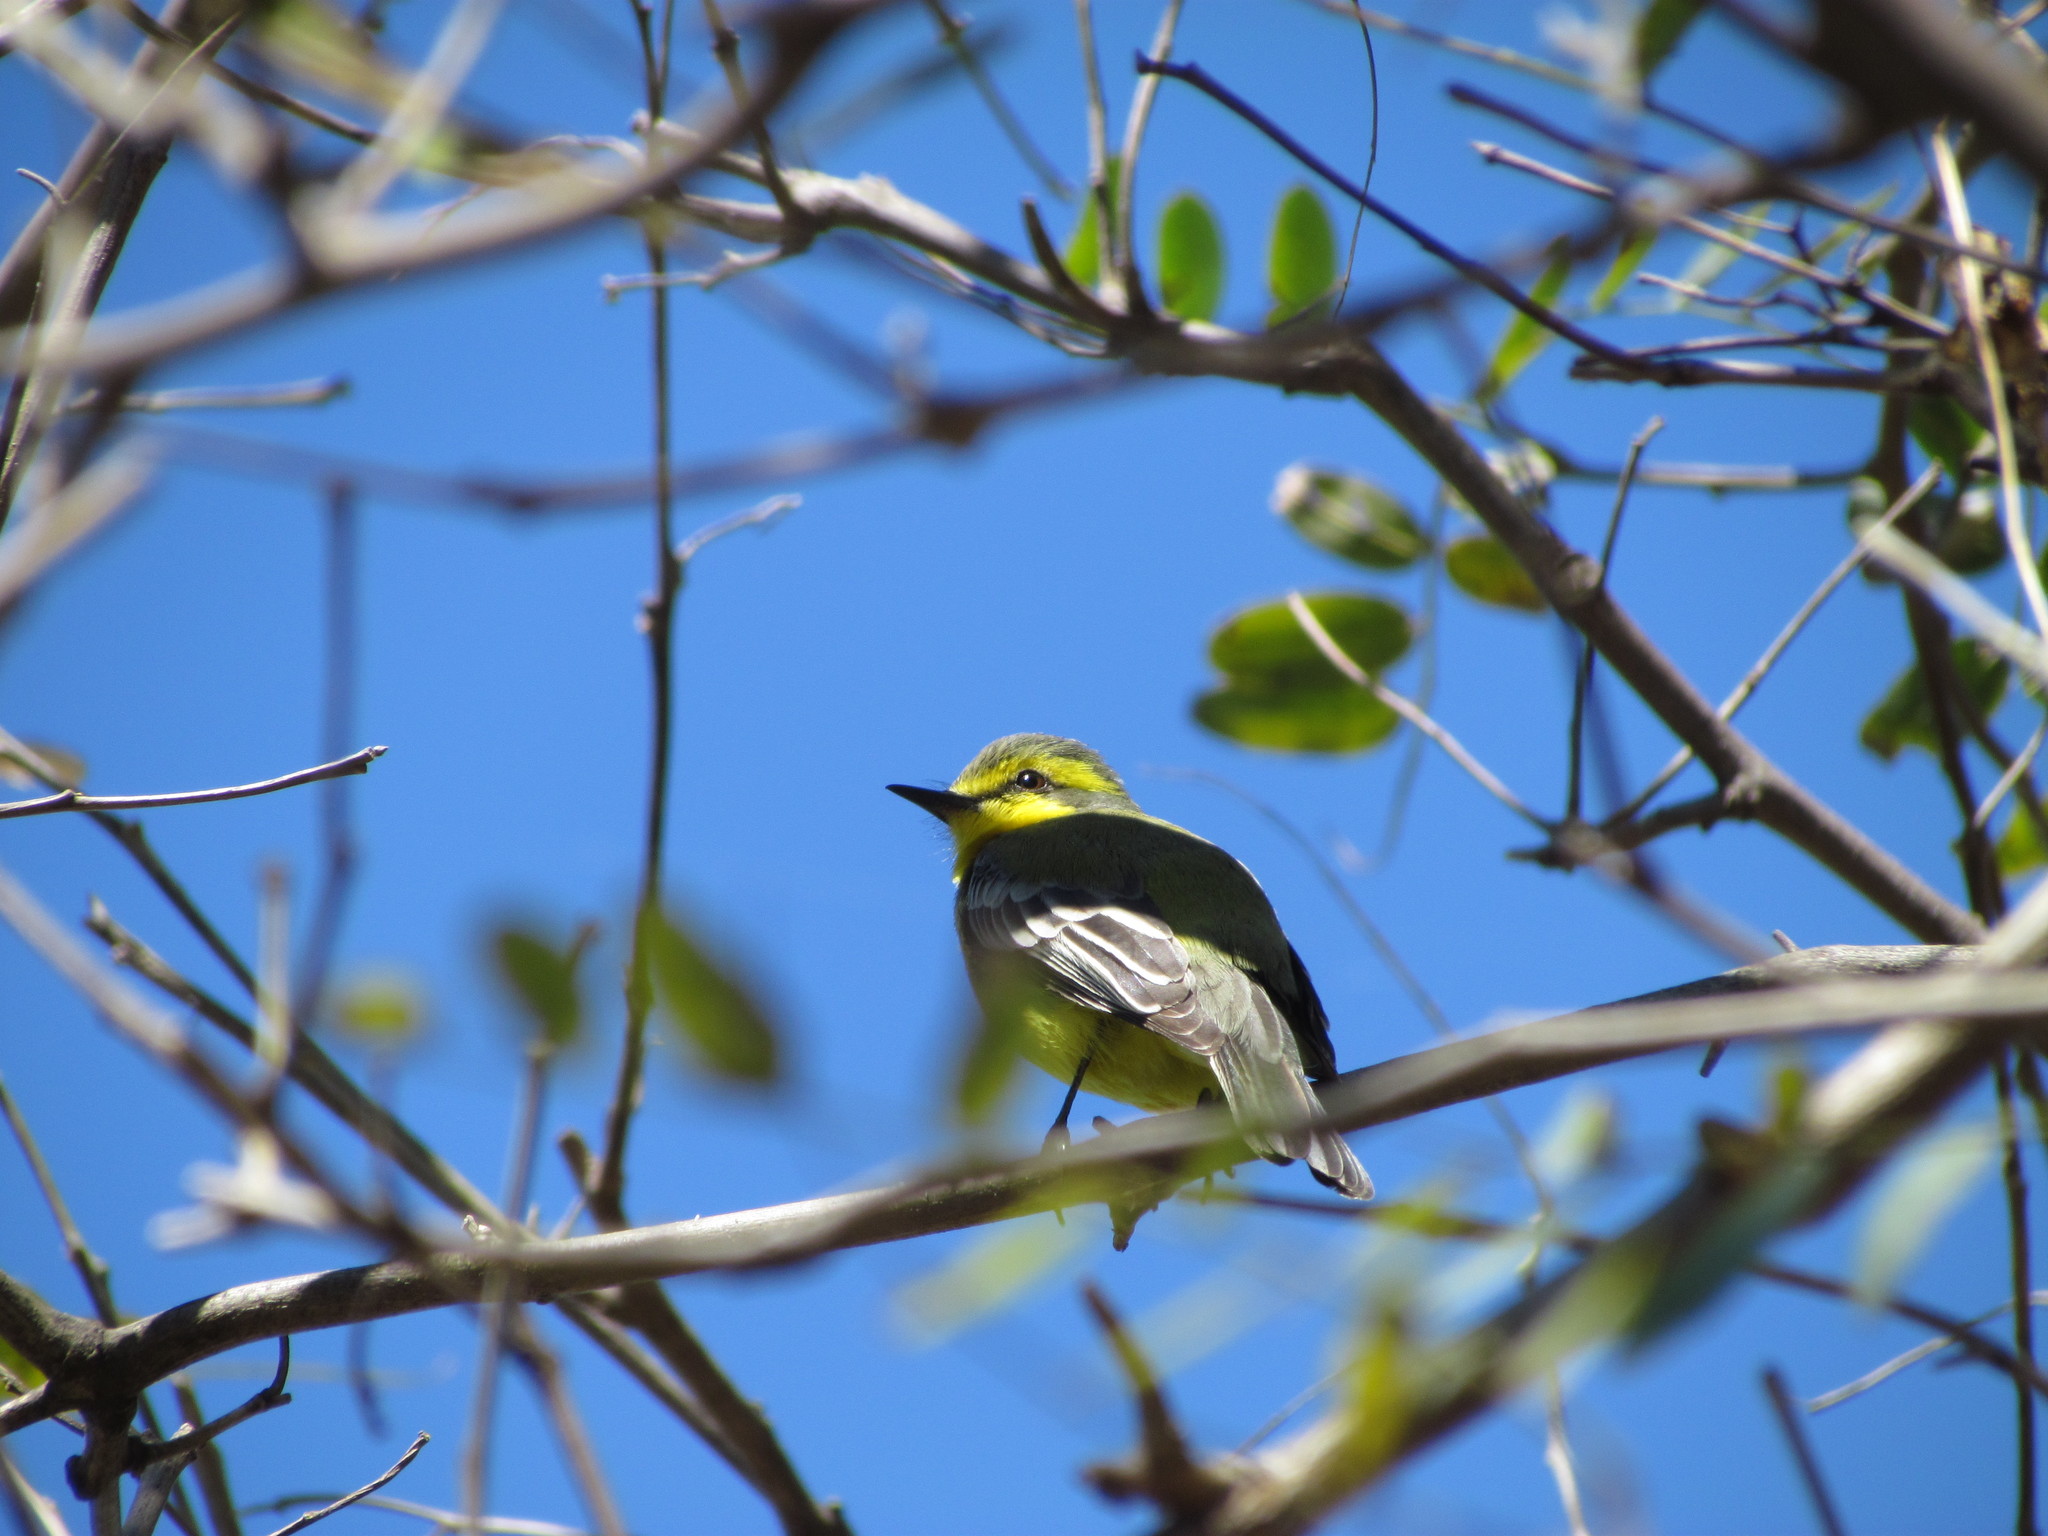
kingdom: Animalia
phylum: Chordata
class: Aves
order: Passeriformes
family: Tyrannidae
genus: Satrapa
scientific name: Satrapa icterophrys
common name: Yellow-browed tyrant
